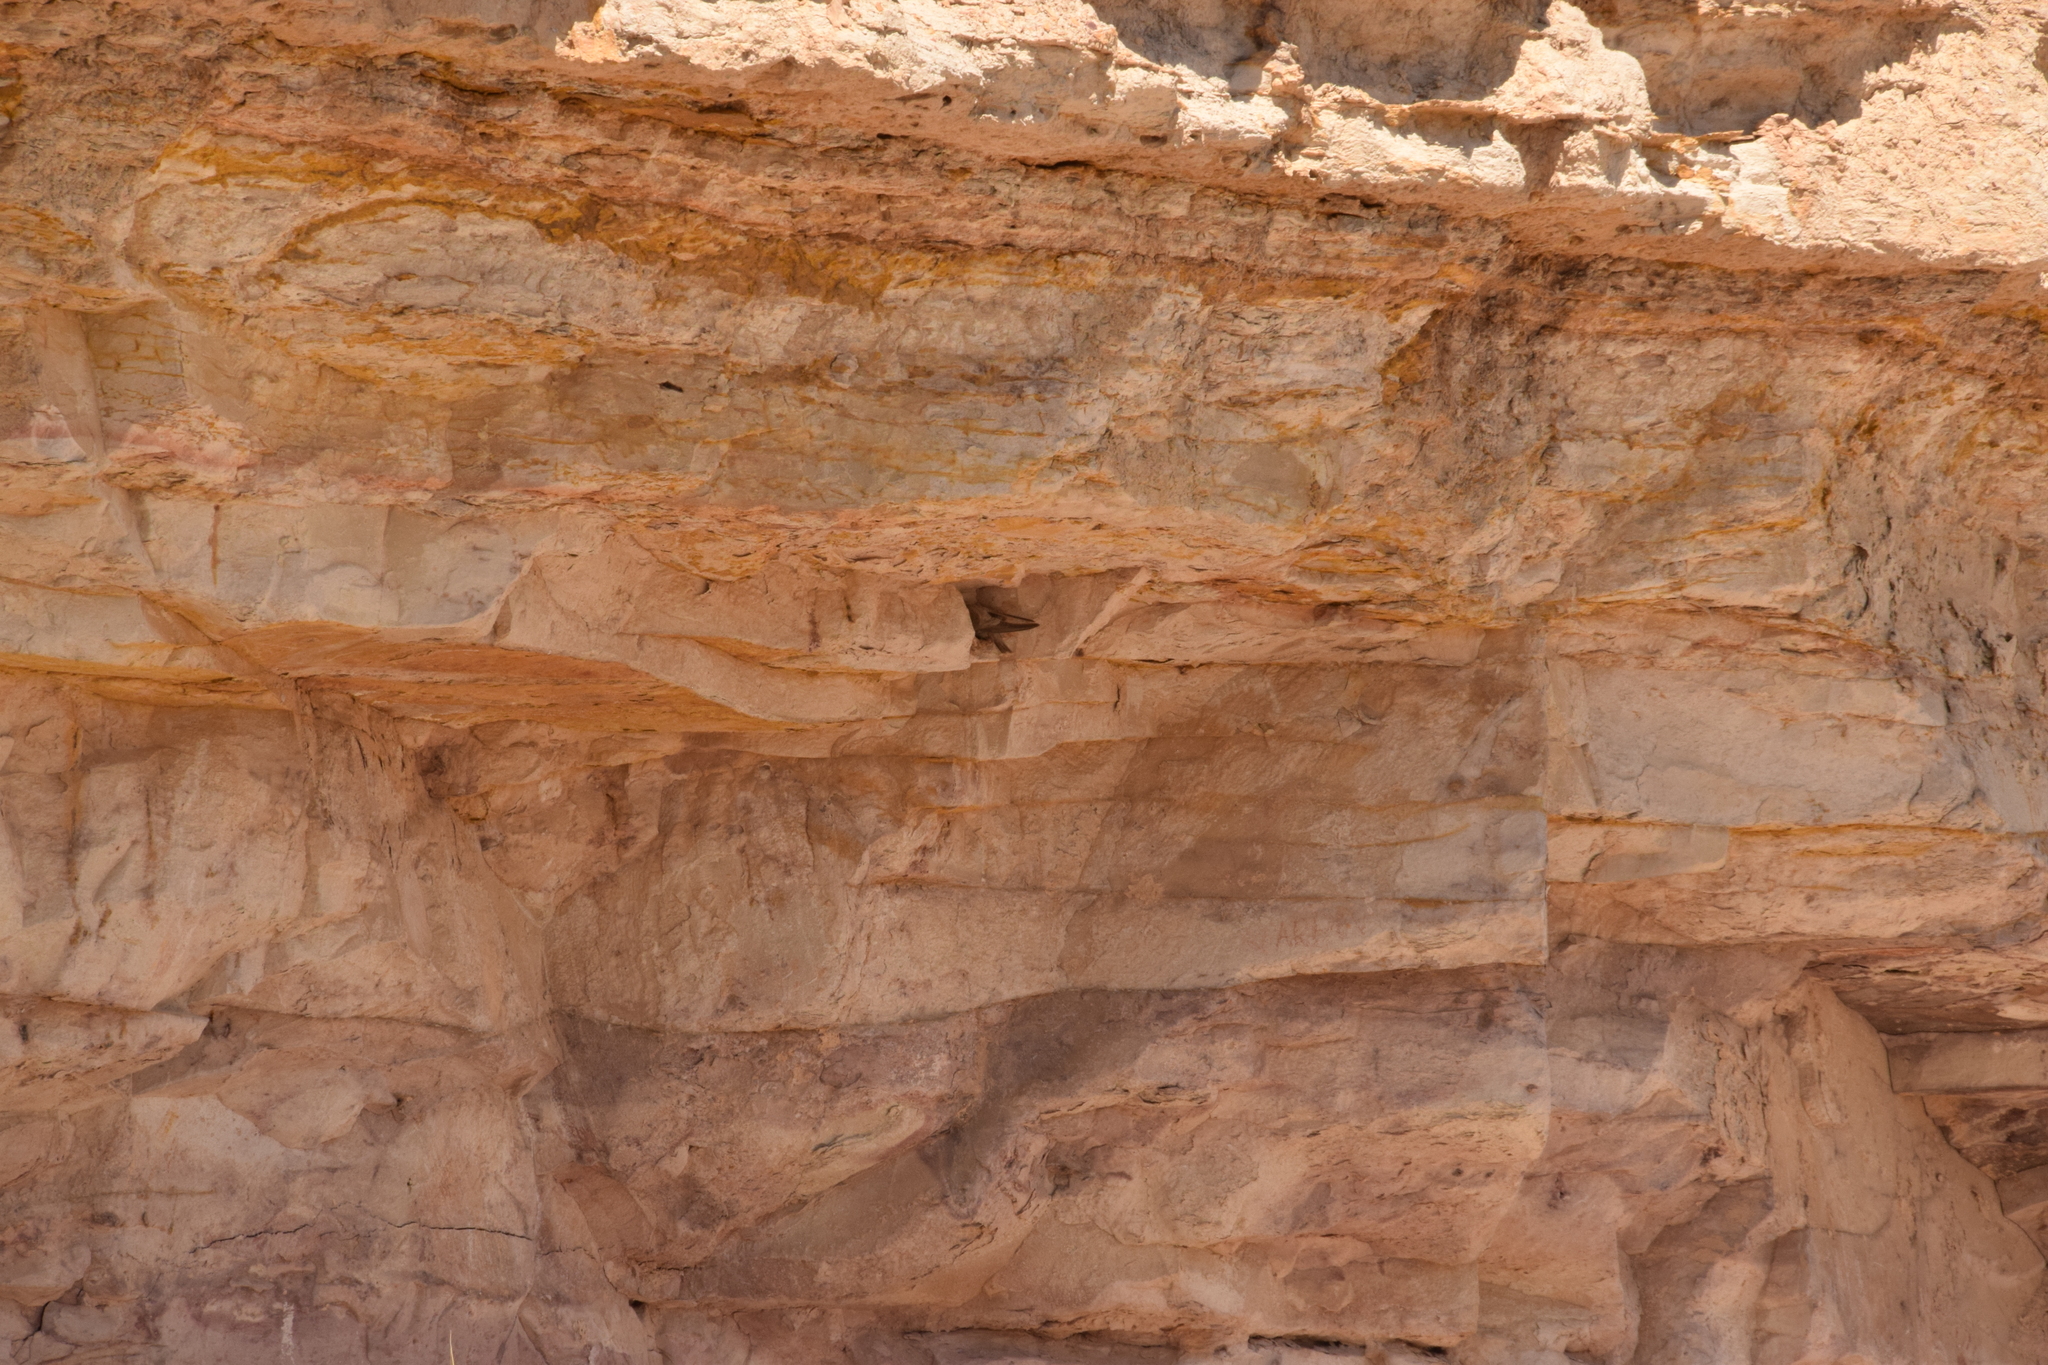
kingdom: Animalia
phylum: Chordata
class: Aves
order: Passeriformes
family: Hirundinidae
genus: Ptyonoprogne
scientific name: Ptyonoprogne fuligula
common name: Rock martin
